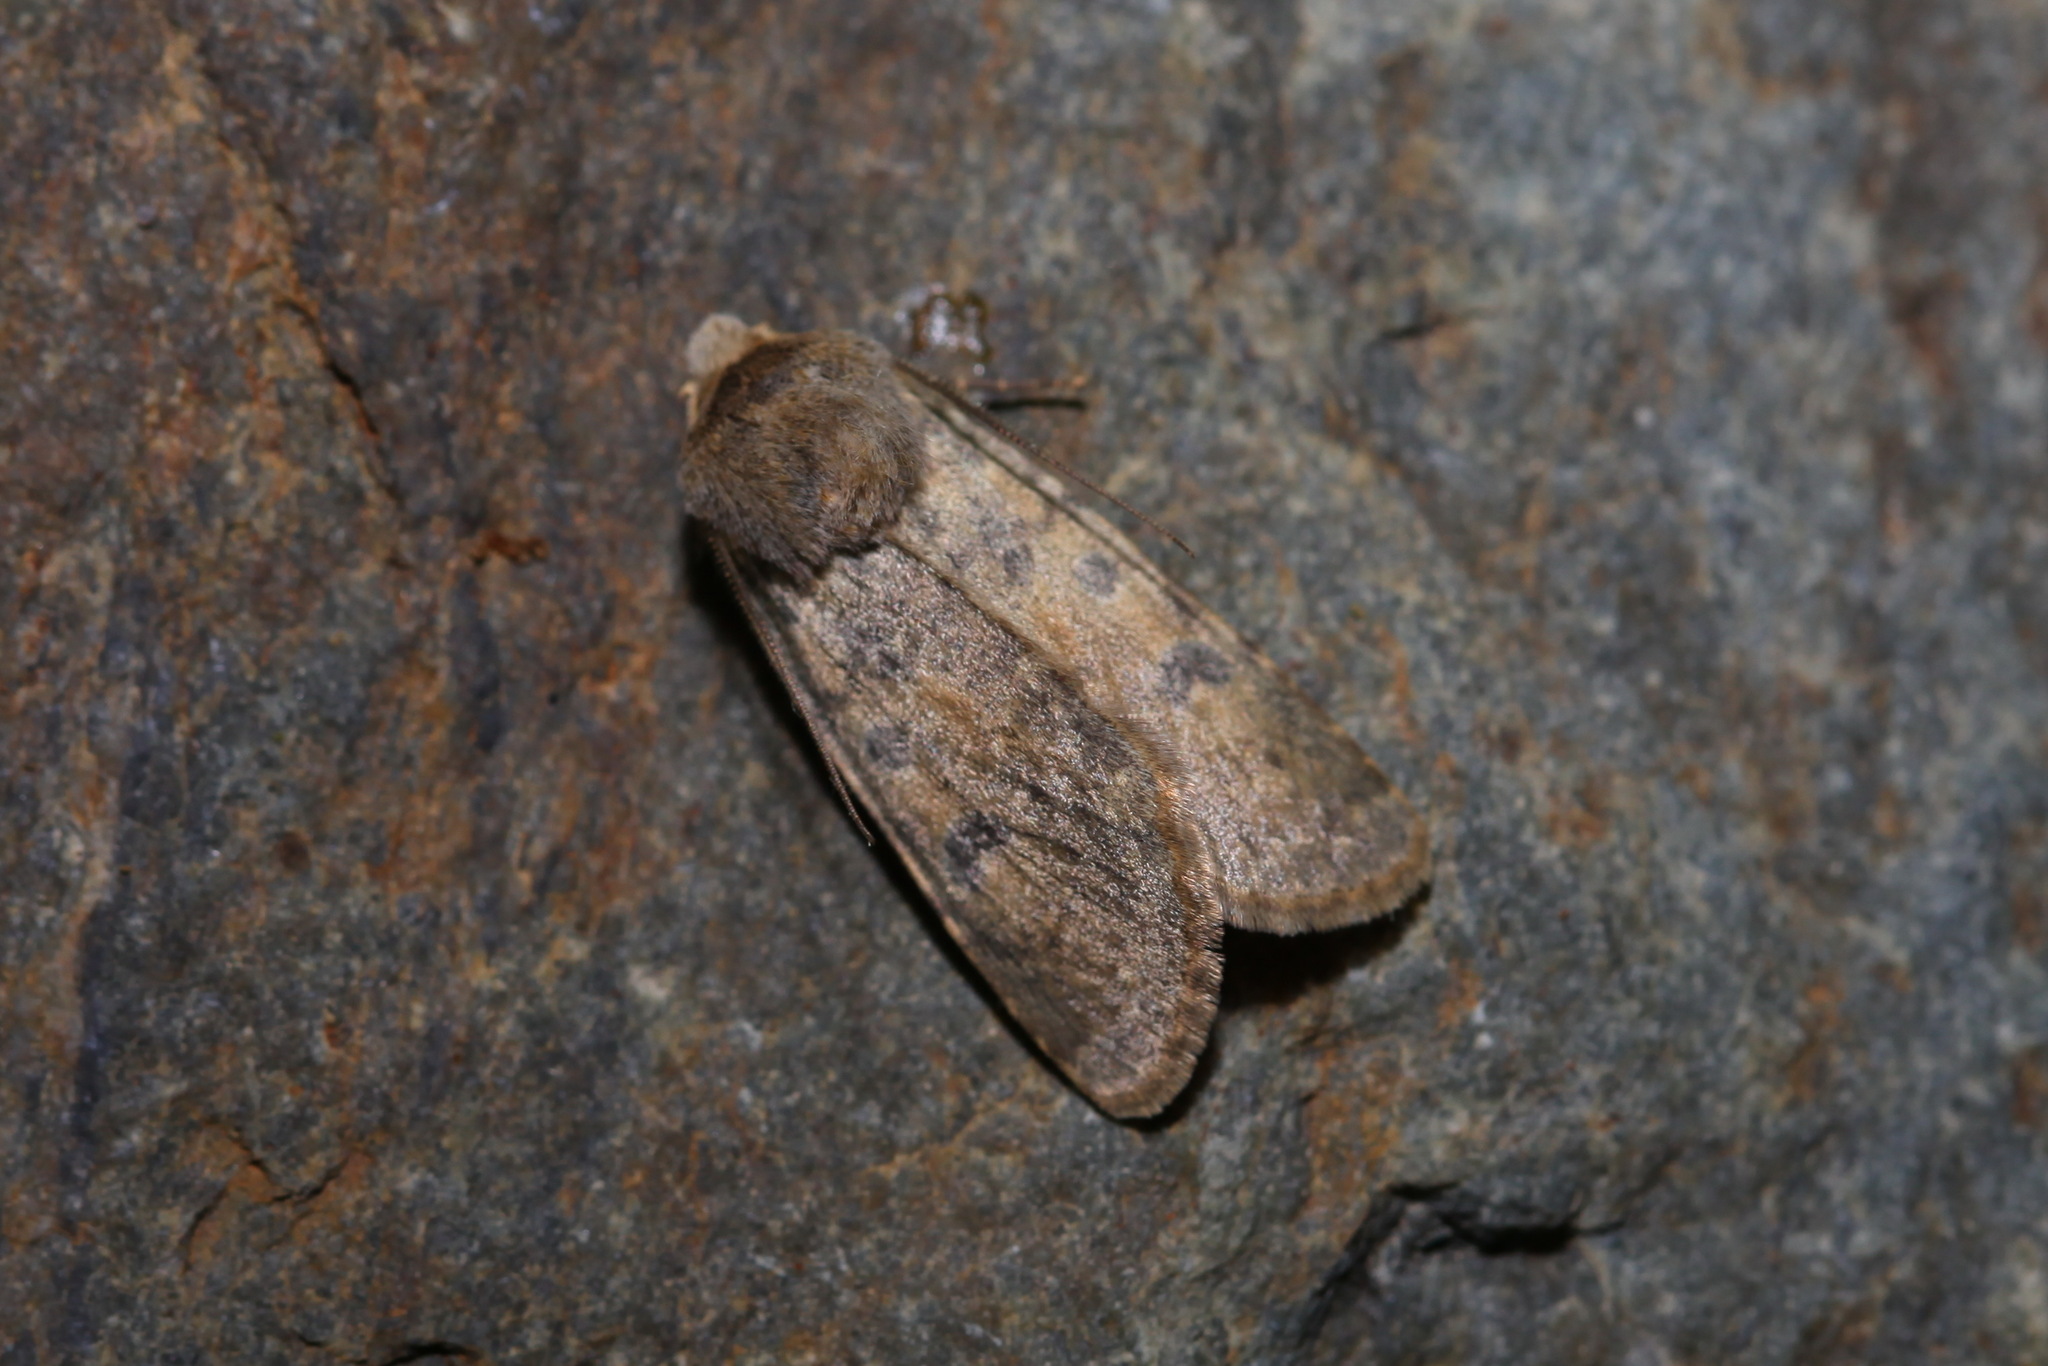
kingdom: Animalia
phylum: Arthropoda
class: Insecta
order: Lepidoptera
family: Noctuidae
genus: Rhyacia
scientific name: Rhyacia junonia
